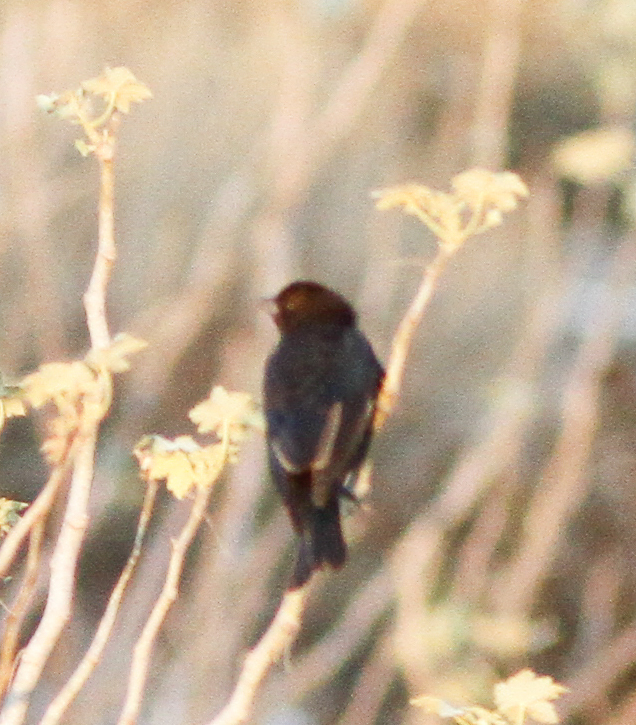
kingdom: Animalia
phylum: Chordata
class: Aves
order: Passeriformes
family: Icteridae
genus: Molothrus
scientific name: Molothrus ater
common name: Brown-headed cowbird
